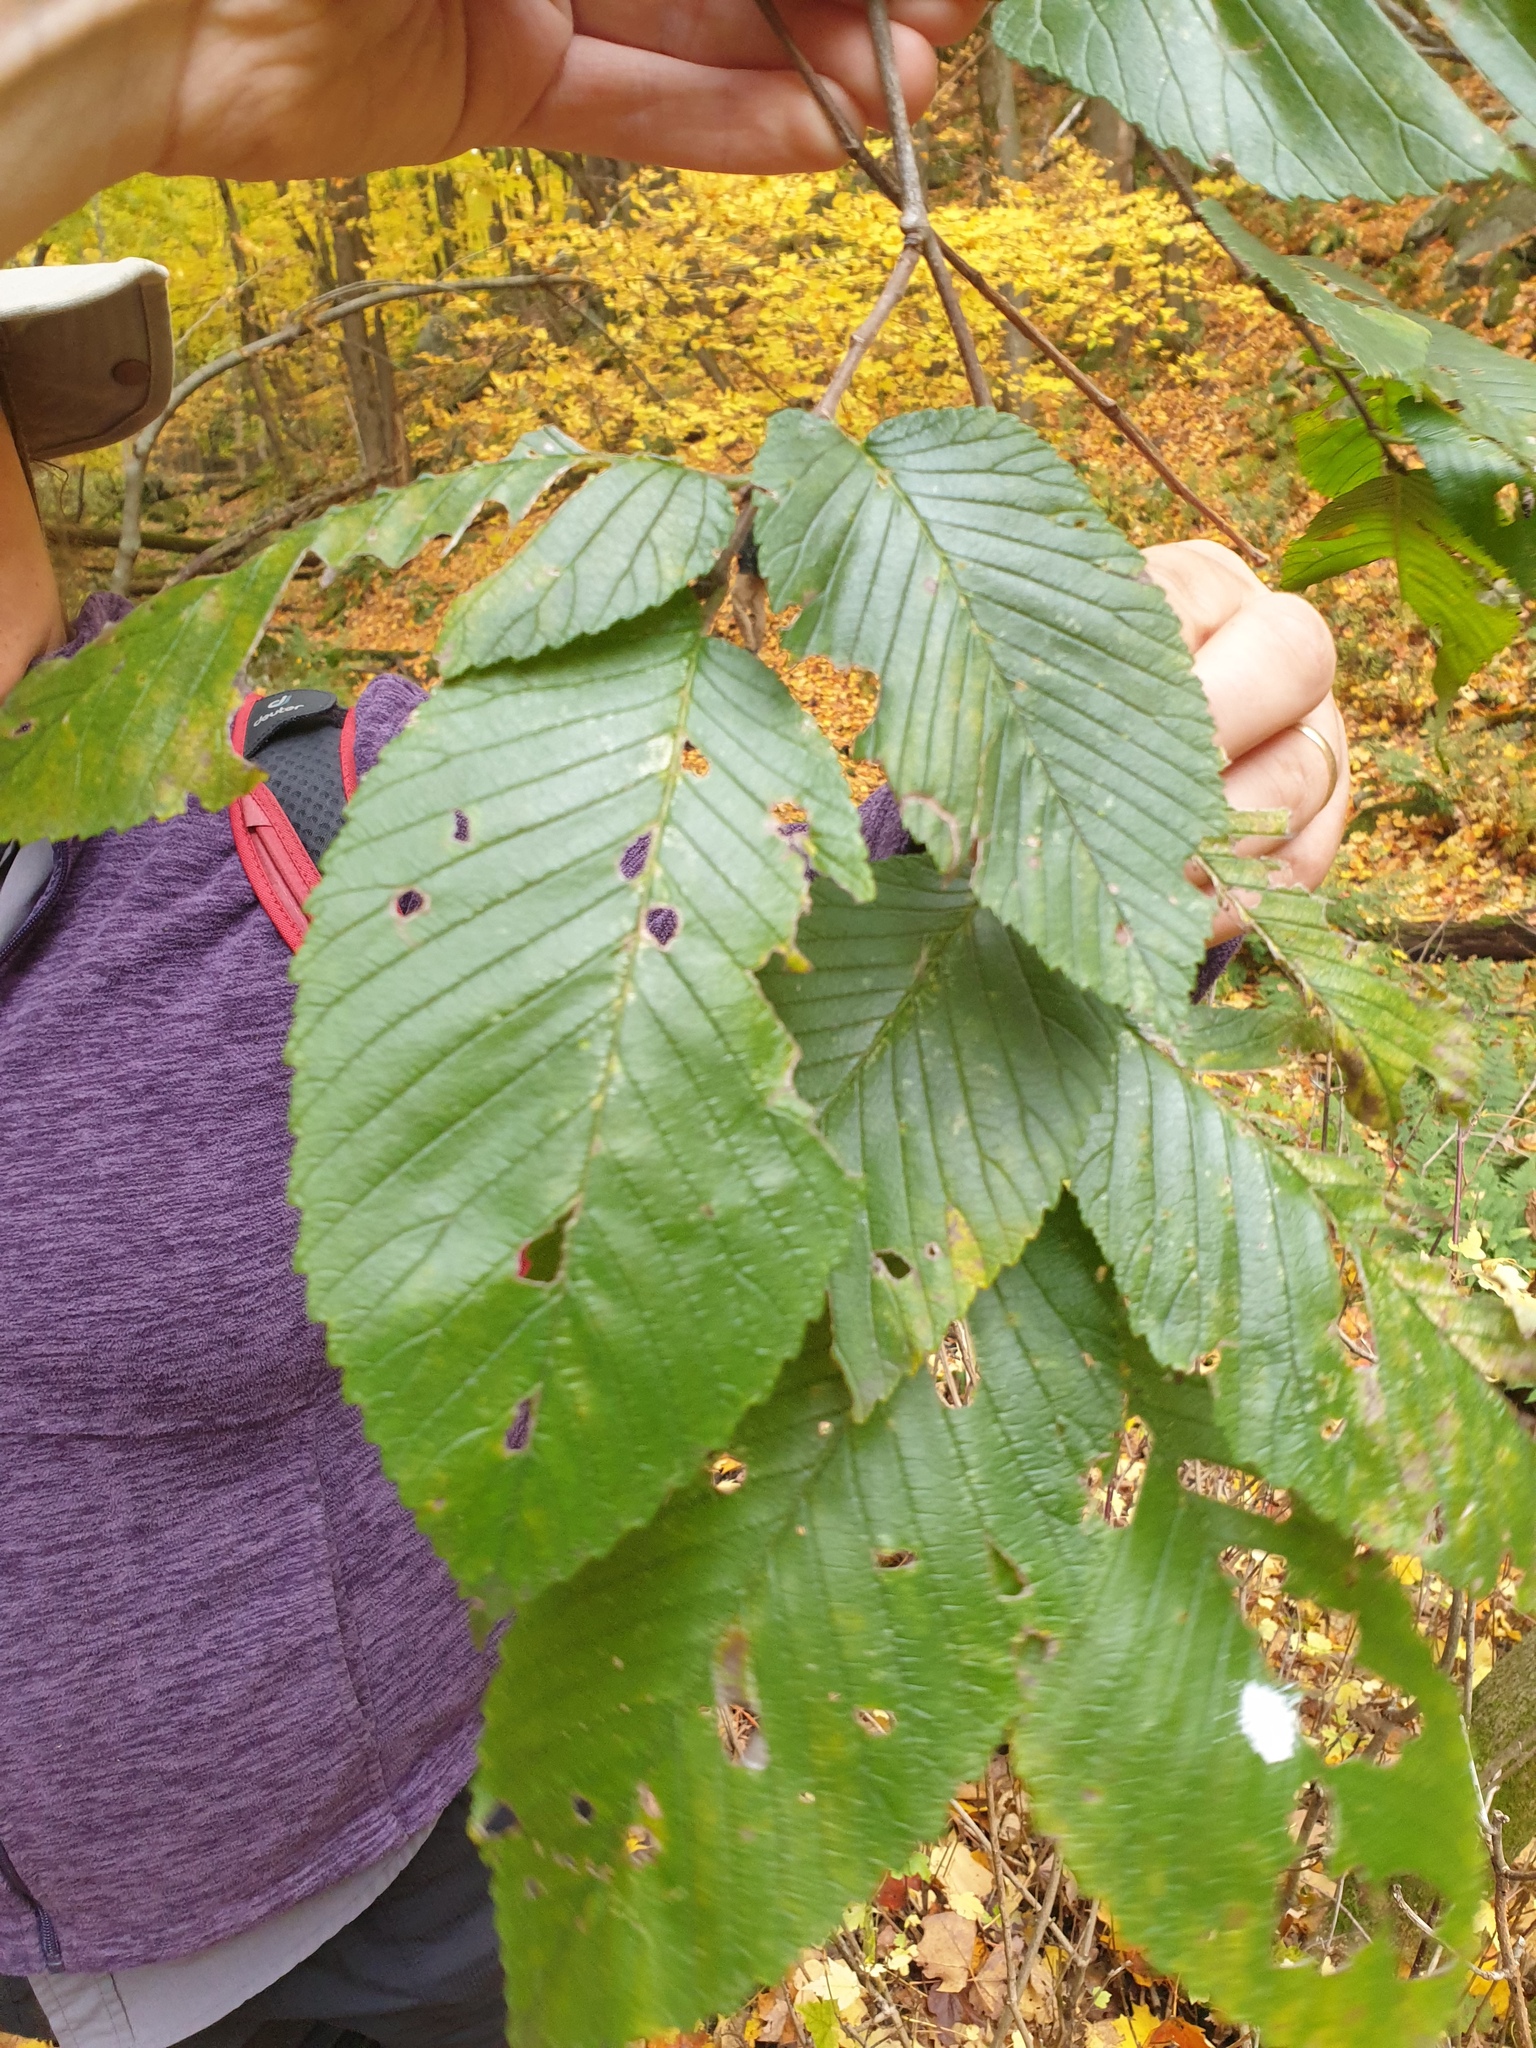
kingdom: Plantae
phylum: Tracheophyta
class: Magnoliopsida
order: Rosales
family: Ulmaceae
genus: Ulmus
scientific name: Ulmus rubra
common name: Slippery elm
